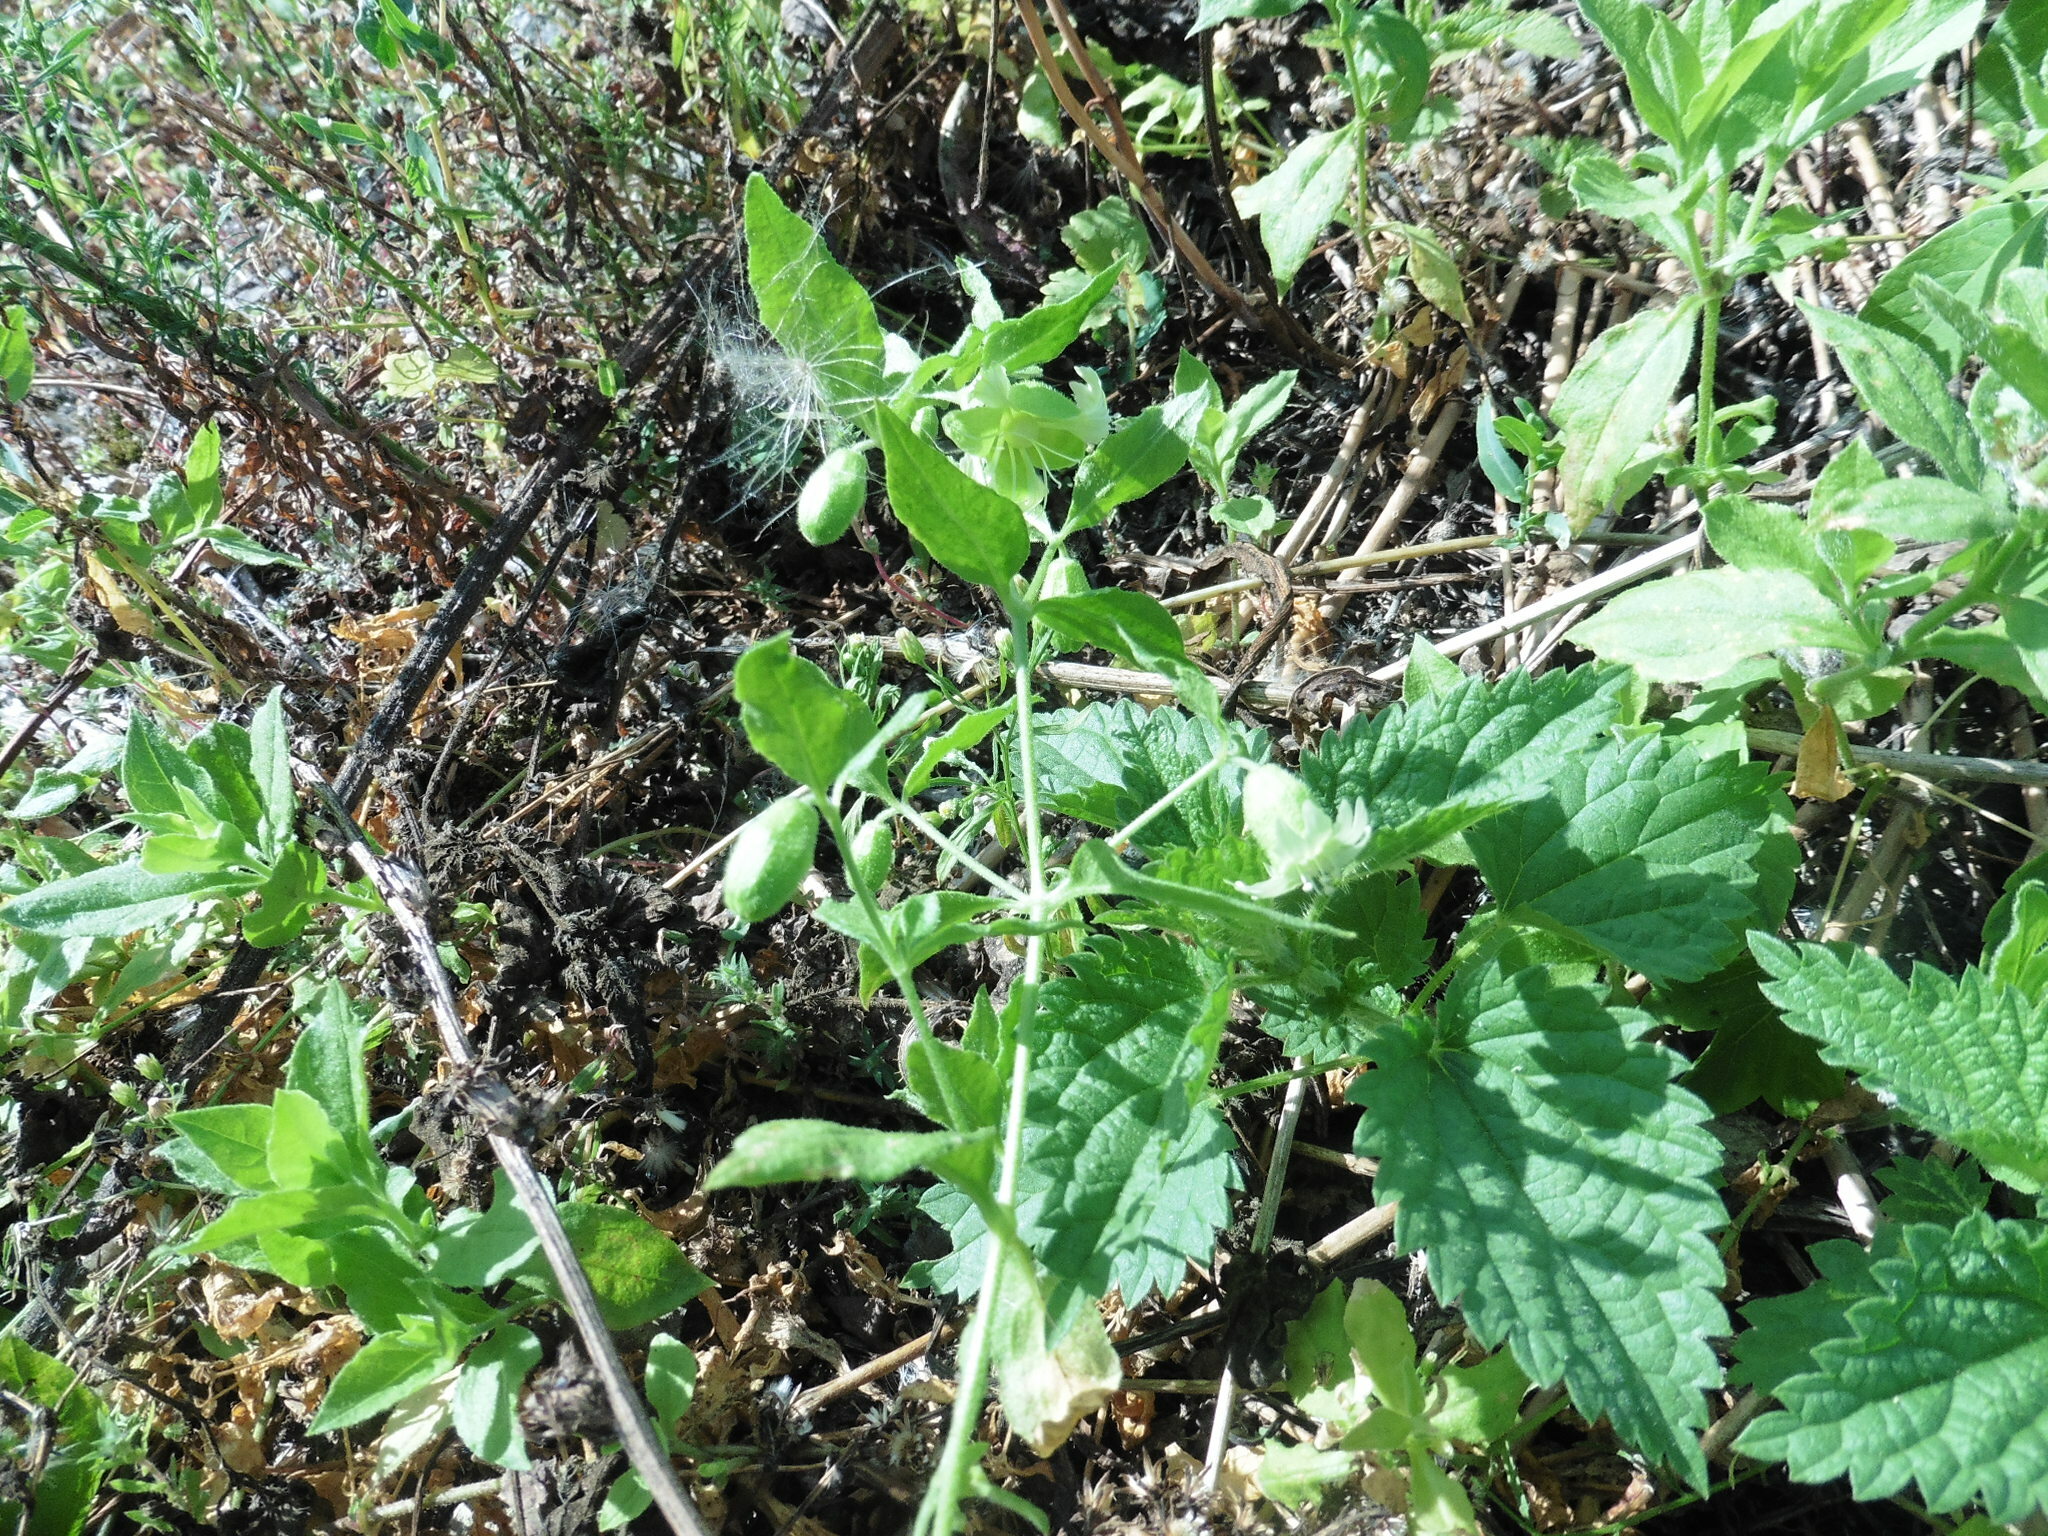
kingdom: Plantae
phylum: Tracheophyta
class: Magnoliopsida
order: Caryophyllales
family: Caryophyllaceae
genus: Silene
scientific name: Silene baccifera
